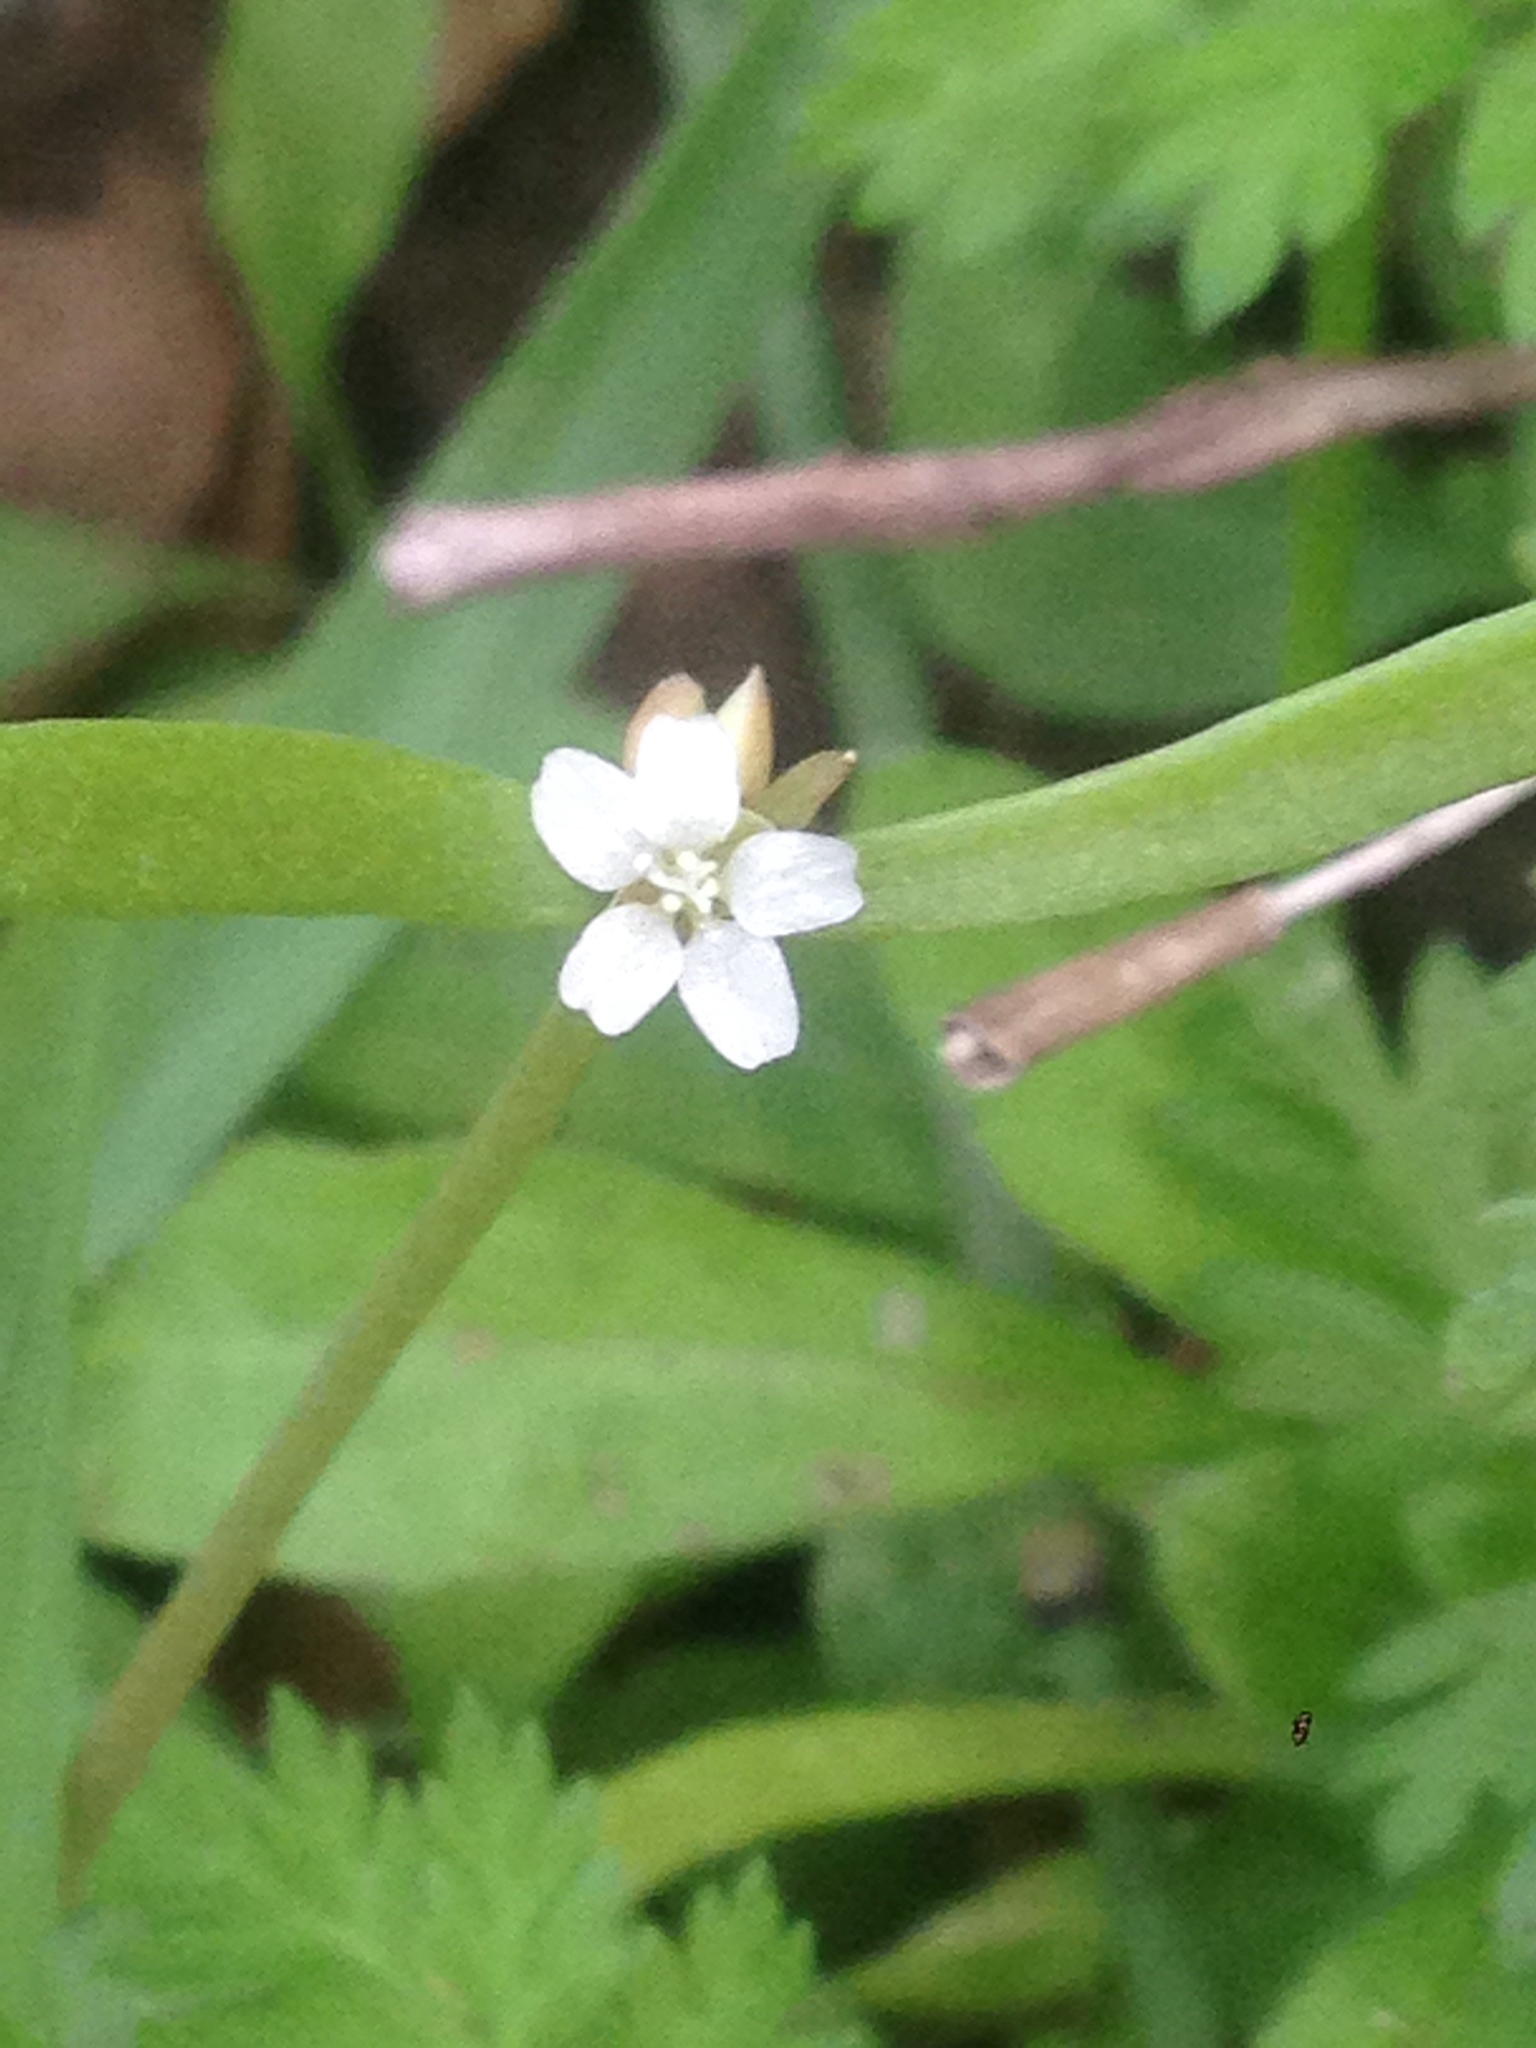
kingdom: Plantae
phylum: Tracheophyta
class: Magnoliopsida
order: Caryophyllales
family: Montiaceae
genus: Claytonia
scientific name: Claytonia parviflora
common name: Indian-lettuce
